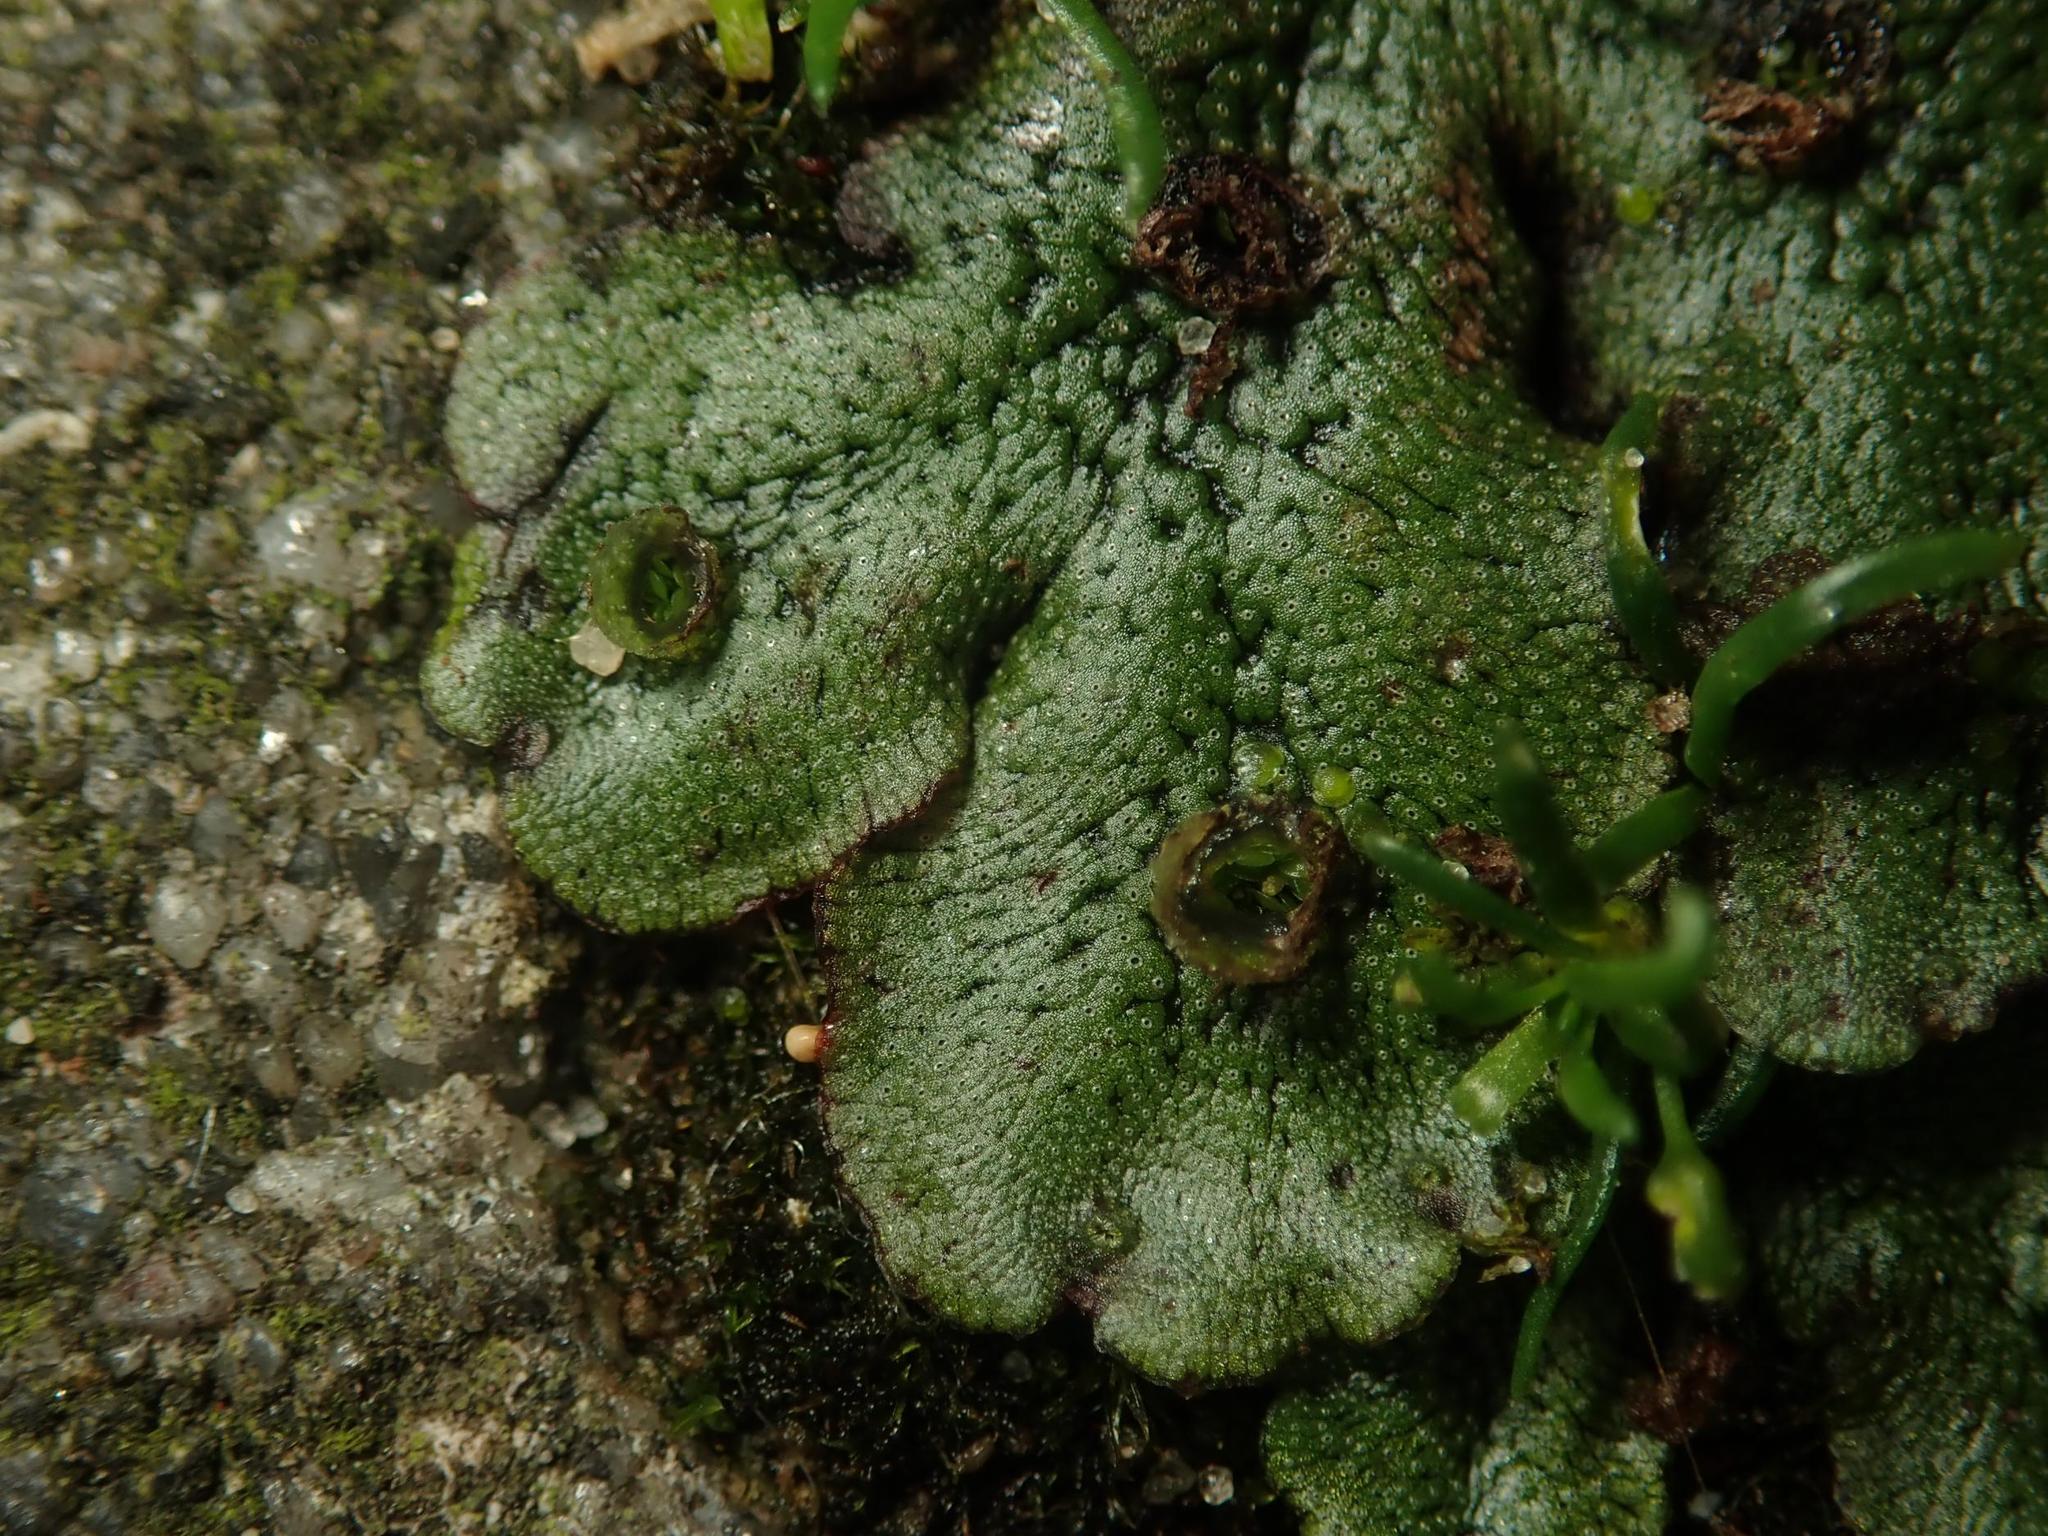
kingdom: Plantae
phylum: Marchantiophyta
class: Marchantiopsida
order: Marchantiales
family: Marchantiaceae
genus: Marchantia
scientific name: Marchantia polymorpha
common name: Common liverwort
